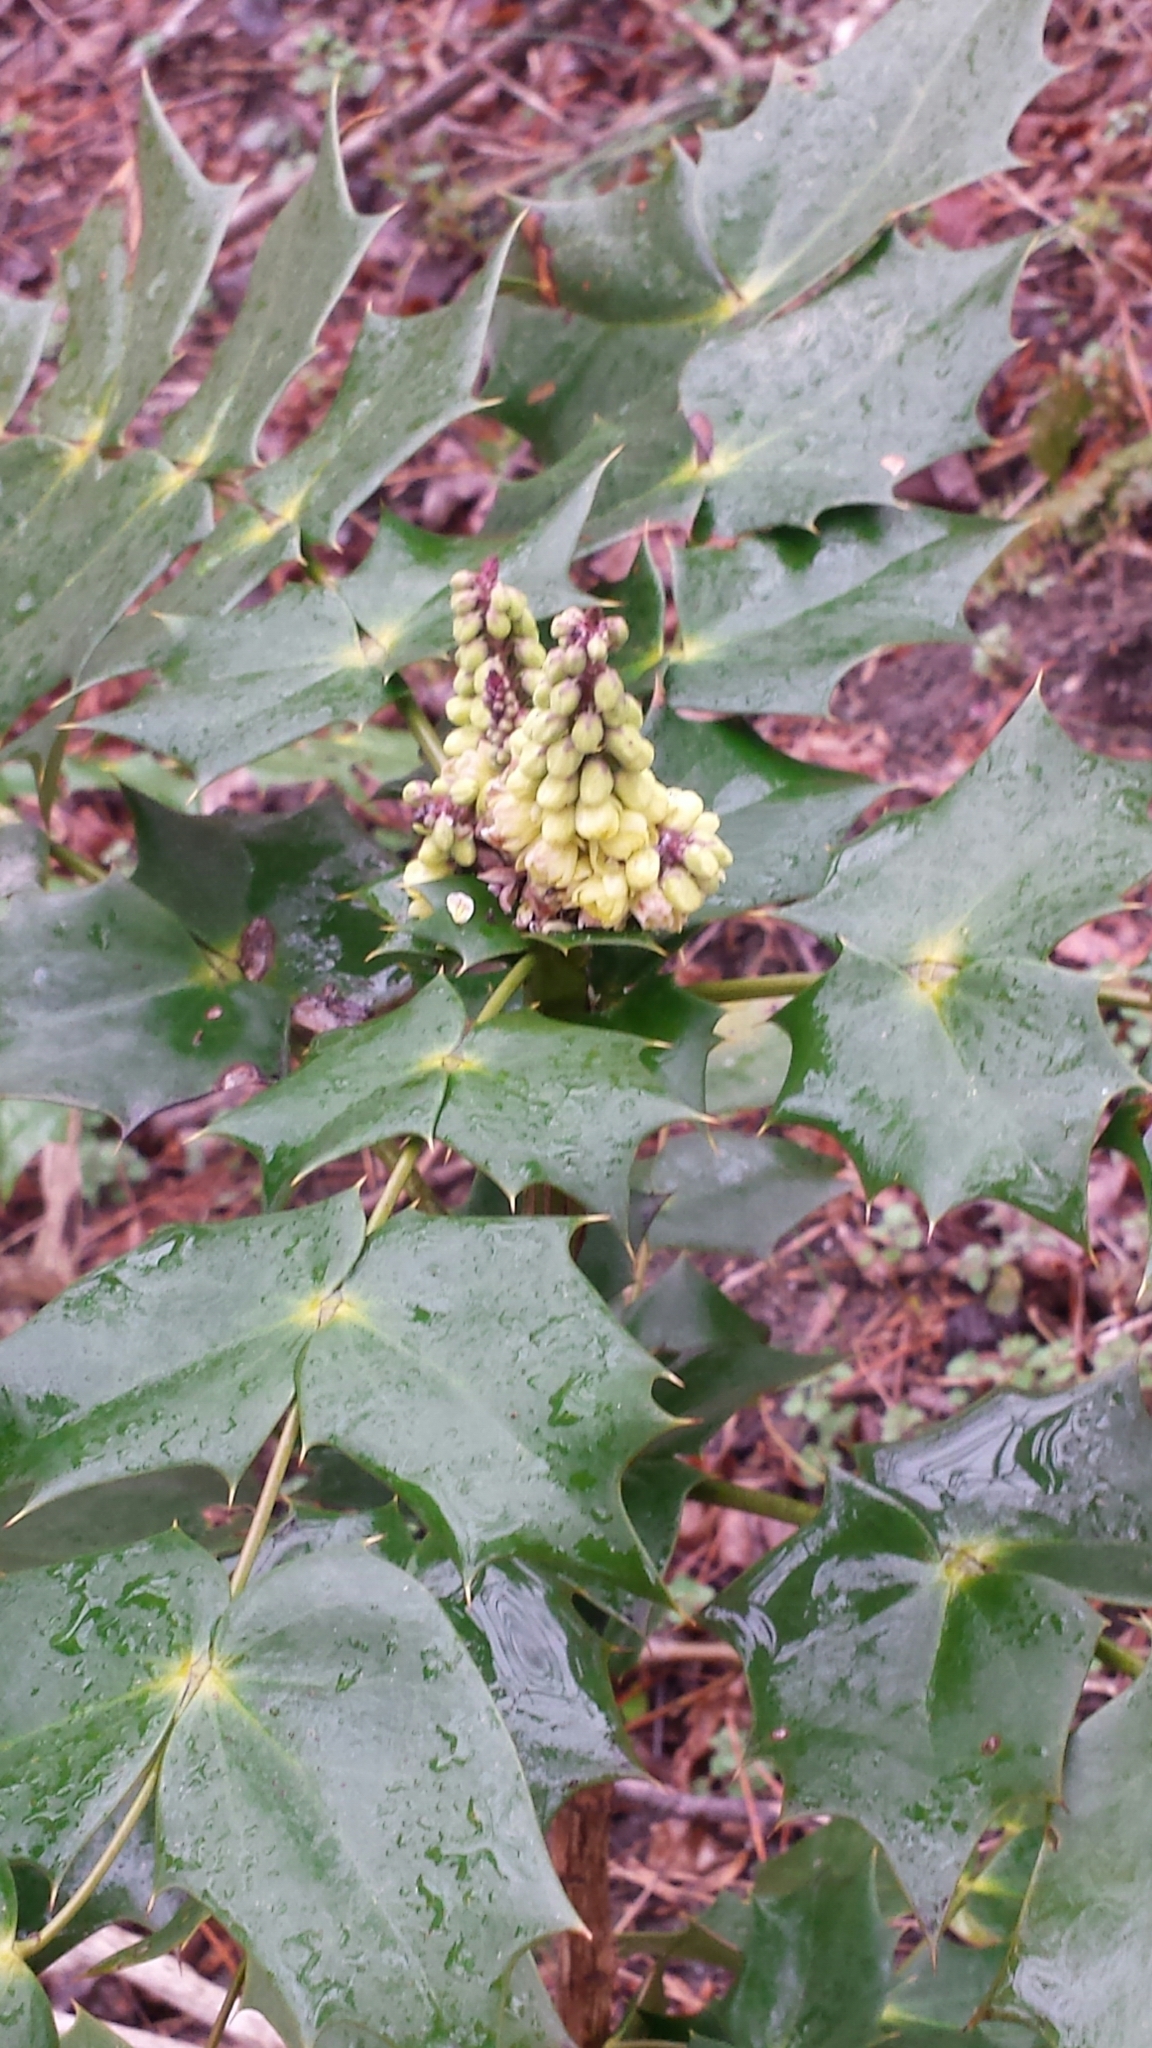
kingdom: Plantae
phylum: Tracheophyta
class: Magnoliopsida
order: Ranunculales
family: Berberidaceae
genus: Mahonia
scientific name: Mahonia bealei
